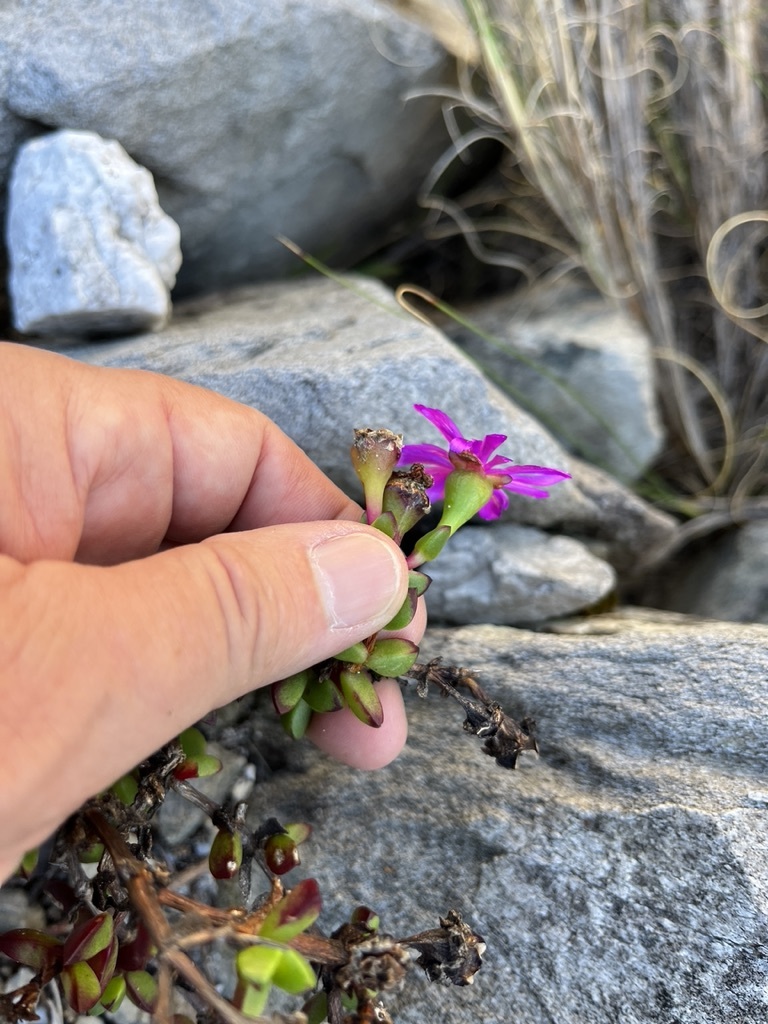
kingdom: Plantae
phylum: Tracheophyta
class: Magnoliopsida
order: Caryophyllales
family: Aizoaceae
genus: Erepsia
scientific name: Erepsia inclaudens
